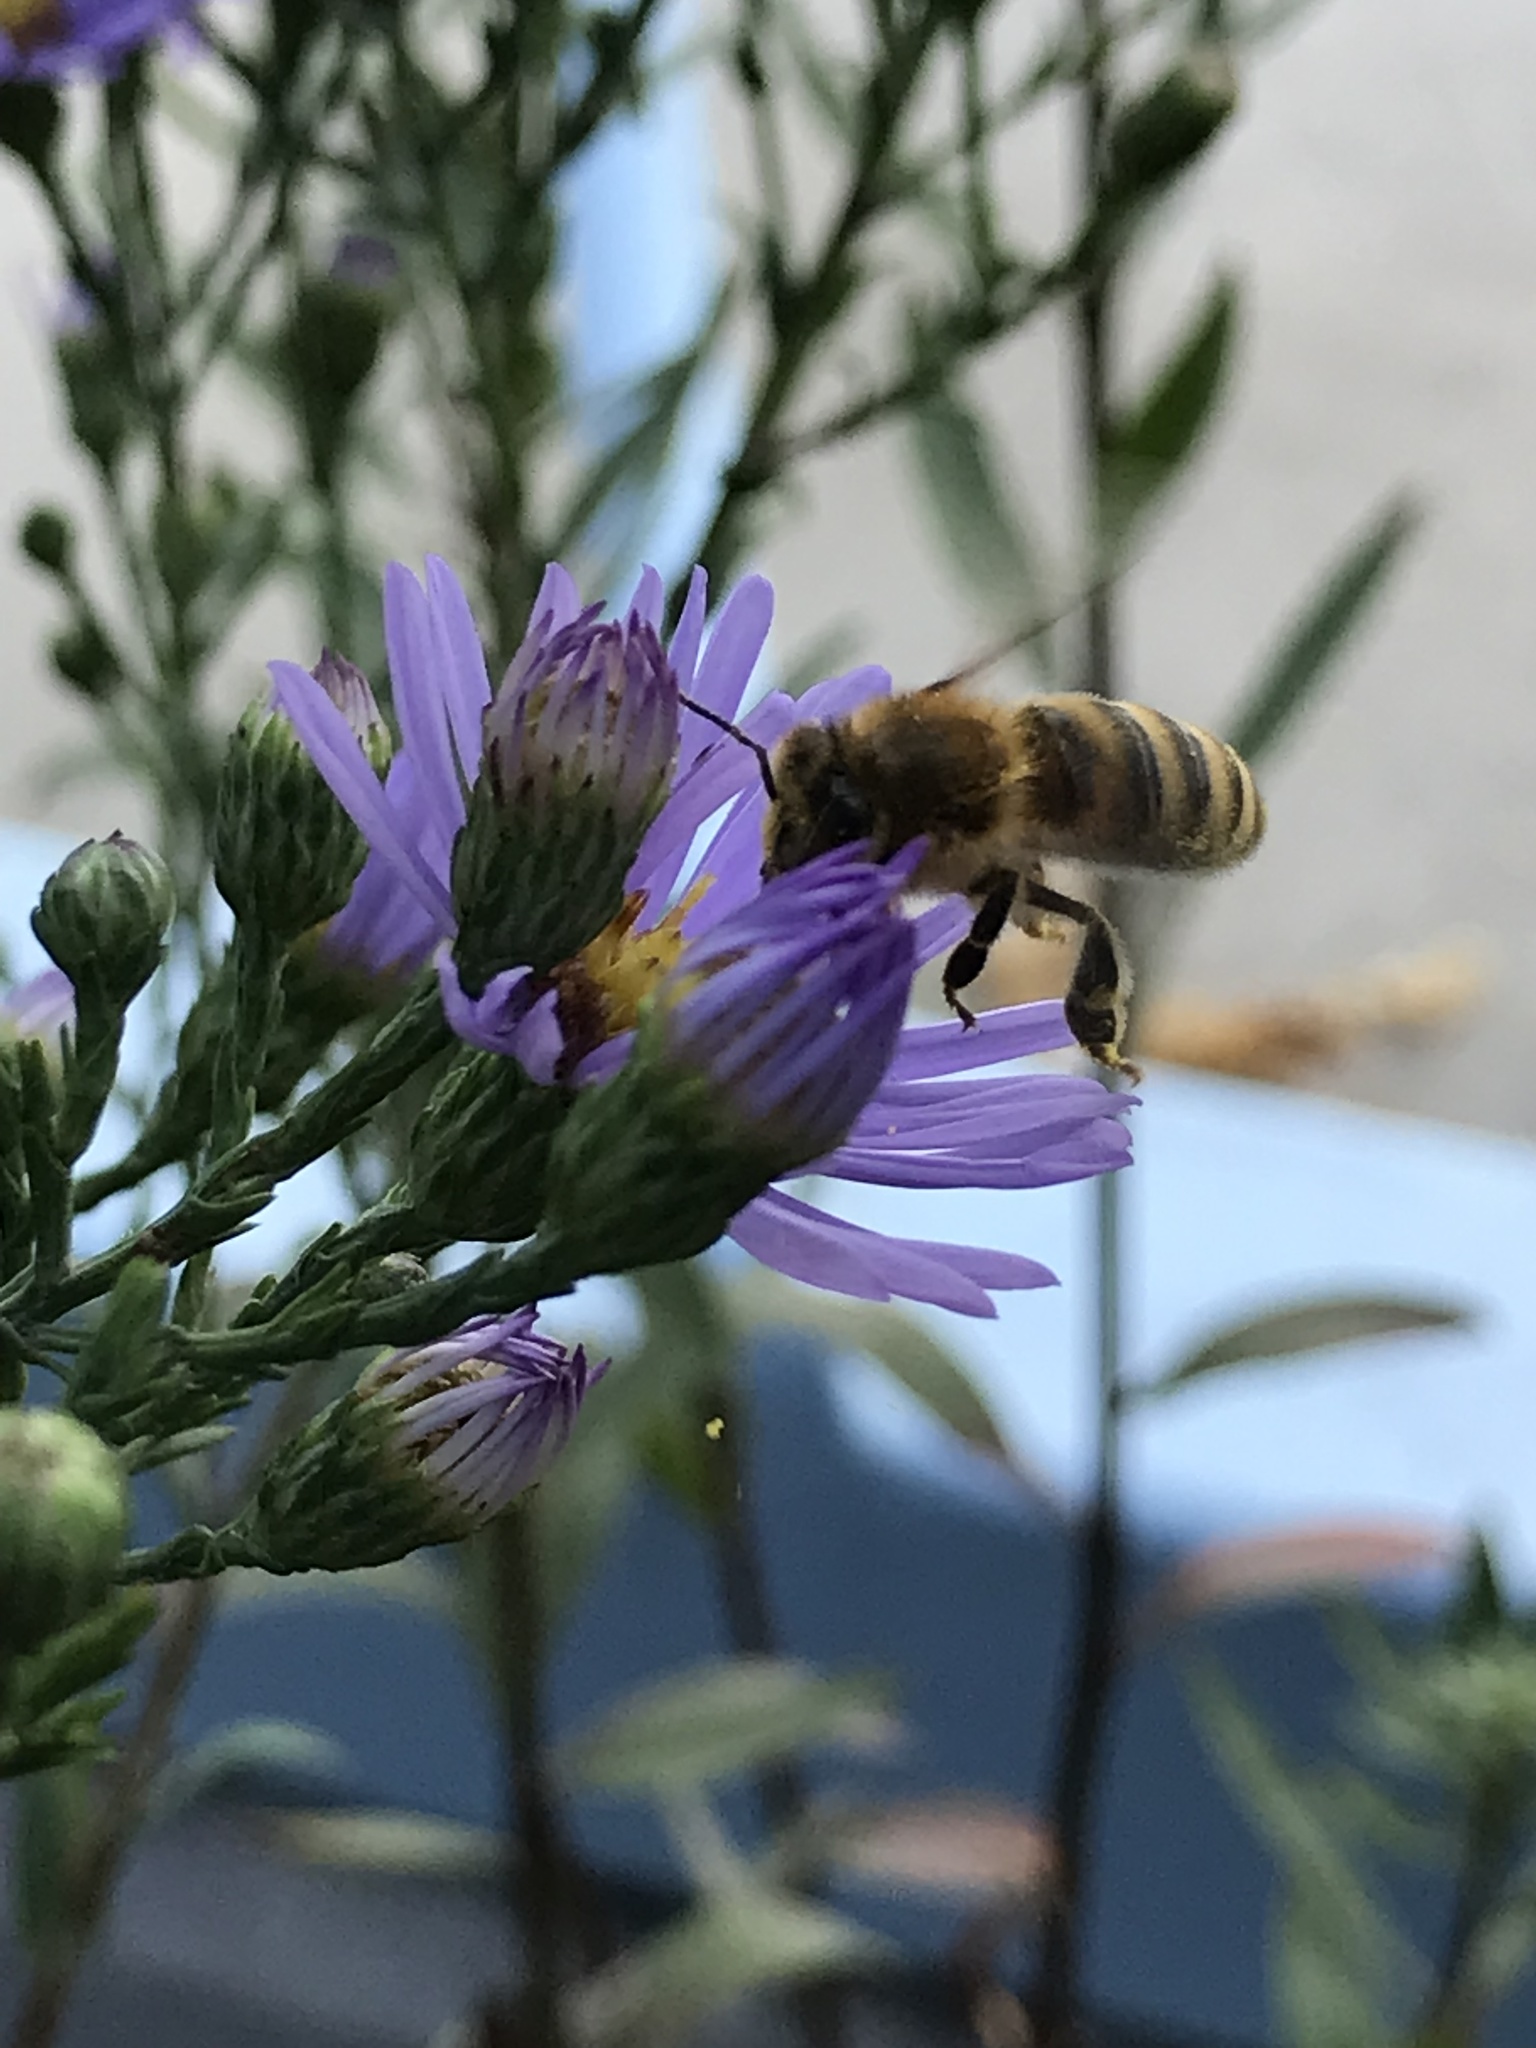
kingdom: Animalia
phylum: Arthropoda
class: Insecta
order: Hymenoptera
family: Apidae
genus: Apis
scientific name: Apis mellifera
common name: Honey bee
